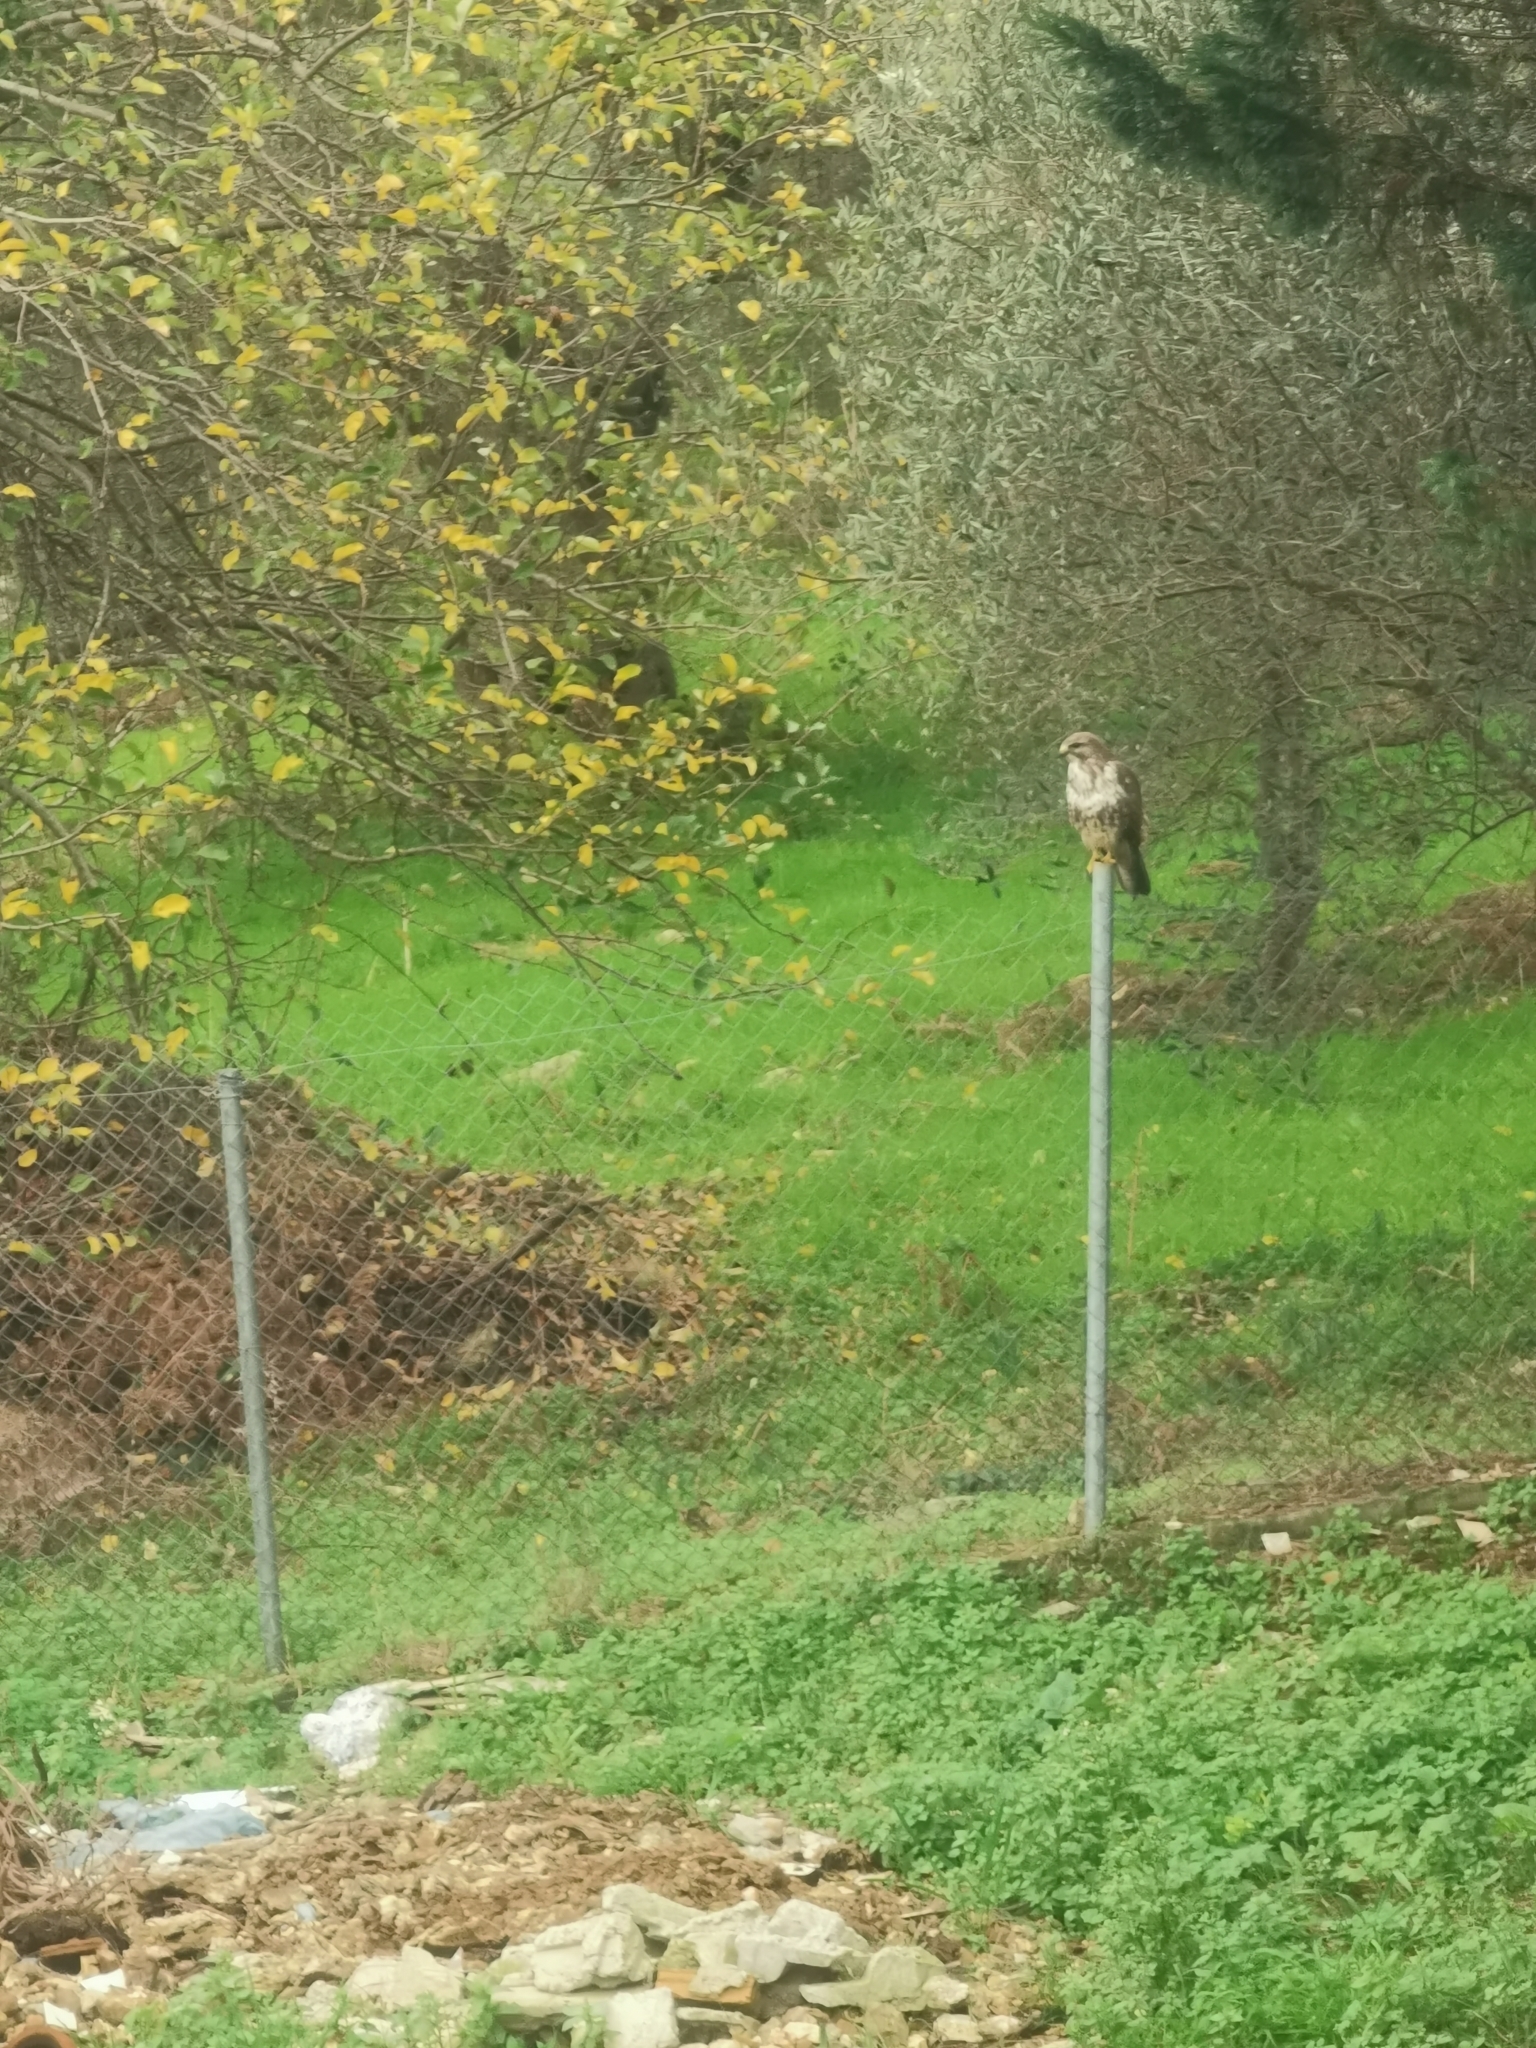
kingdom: Animalia
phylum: Chordata
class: Aves
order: Accipitriformes
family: Accipitridae
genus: Buteo
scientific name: Buteo buteo
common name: Common buzzard
